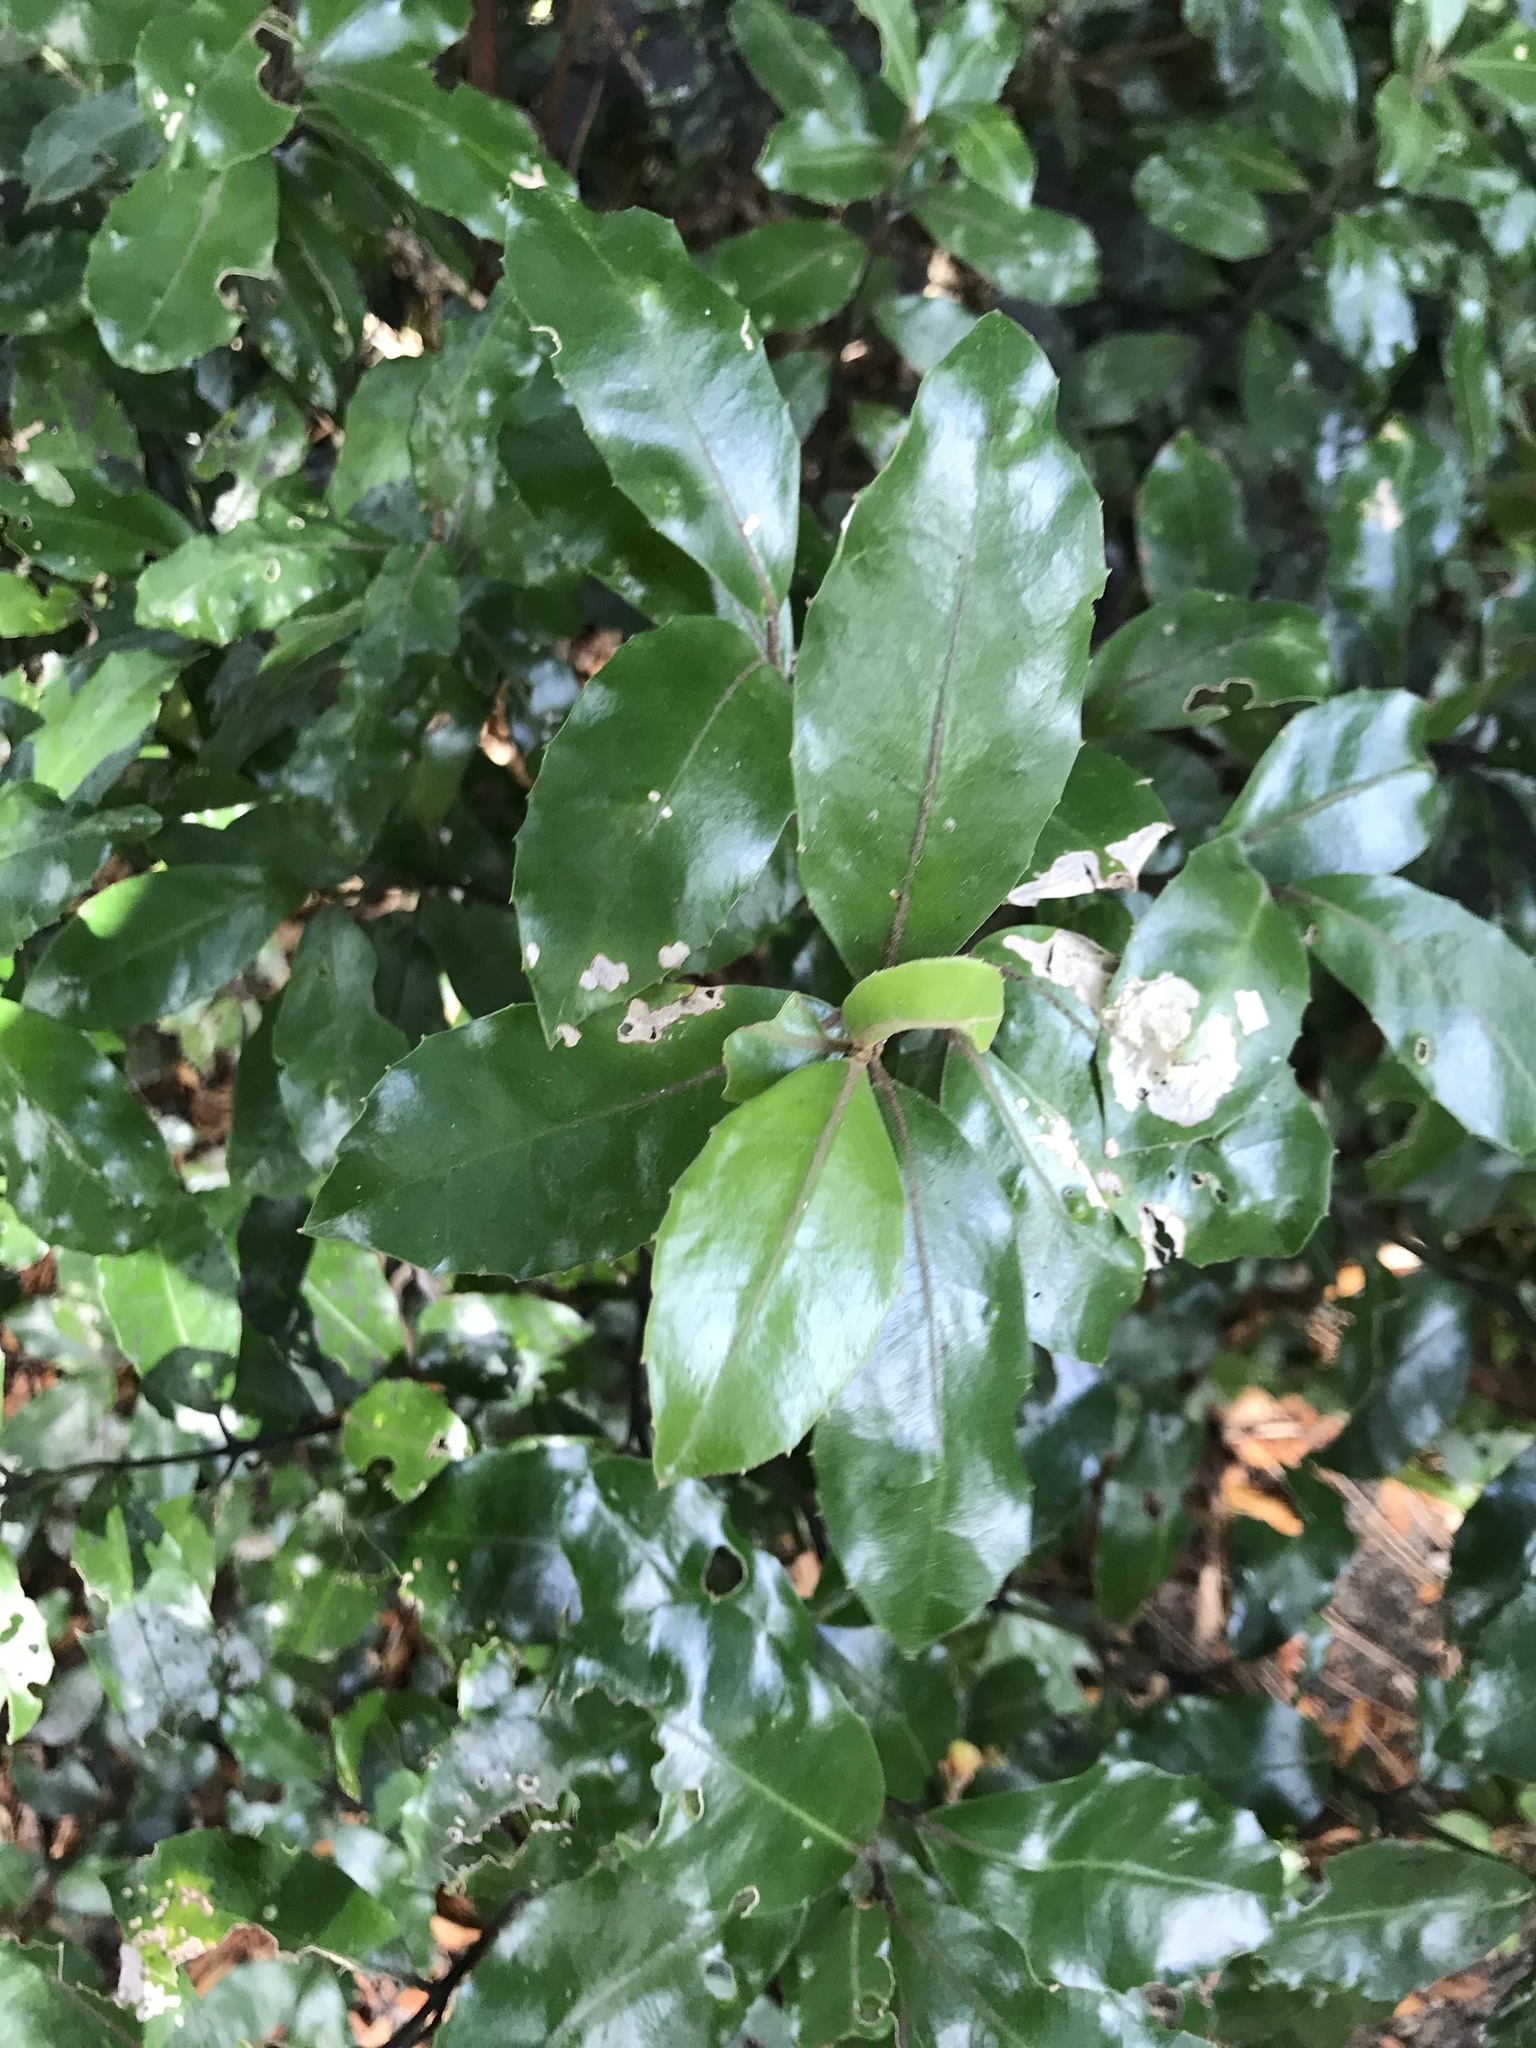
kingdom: Plantae
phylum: Tracheophyta
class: Magnoliopsida
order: Laurales
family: Monimiaceae
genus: Hedycarya
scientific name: Hedycarya arborea
